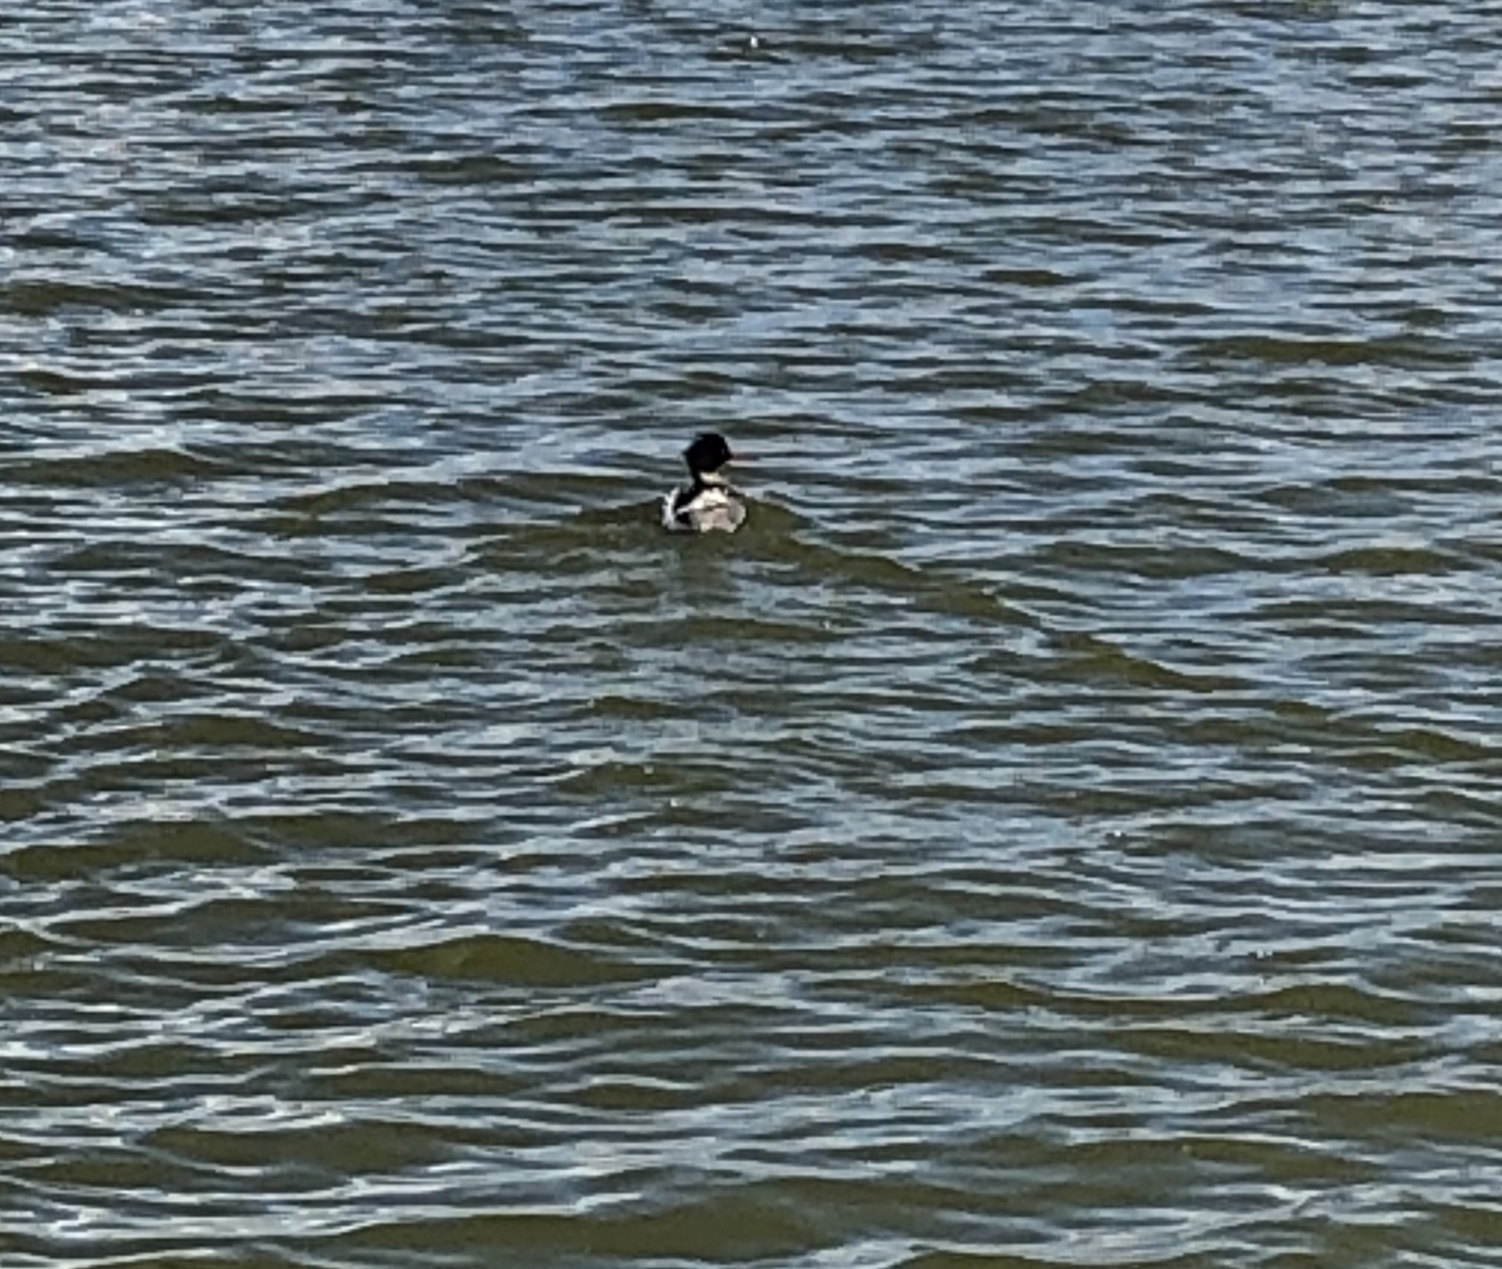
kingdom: Animalia
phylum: Chordata
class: Aves
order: Anseriformes
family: Anatidae
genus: Mergus
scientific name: Mergus serrator
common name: Red-breasted merganser
